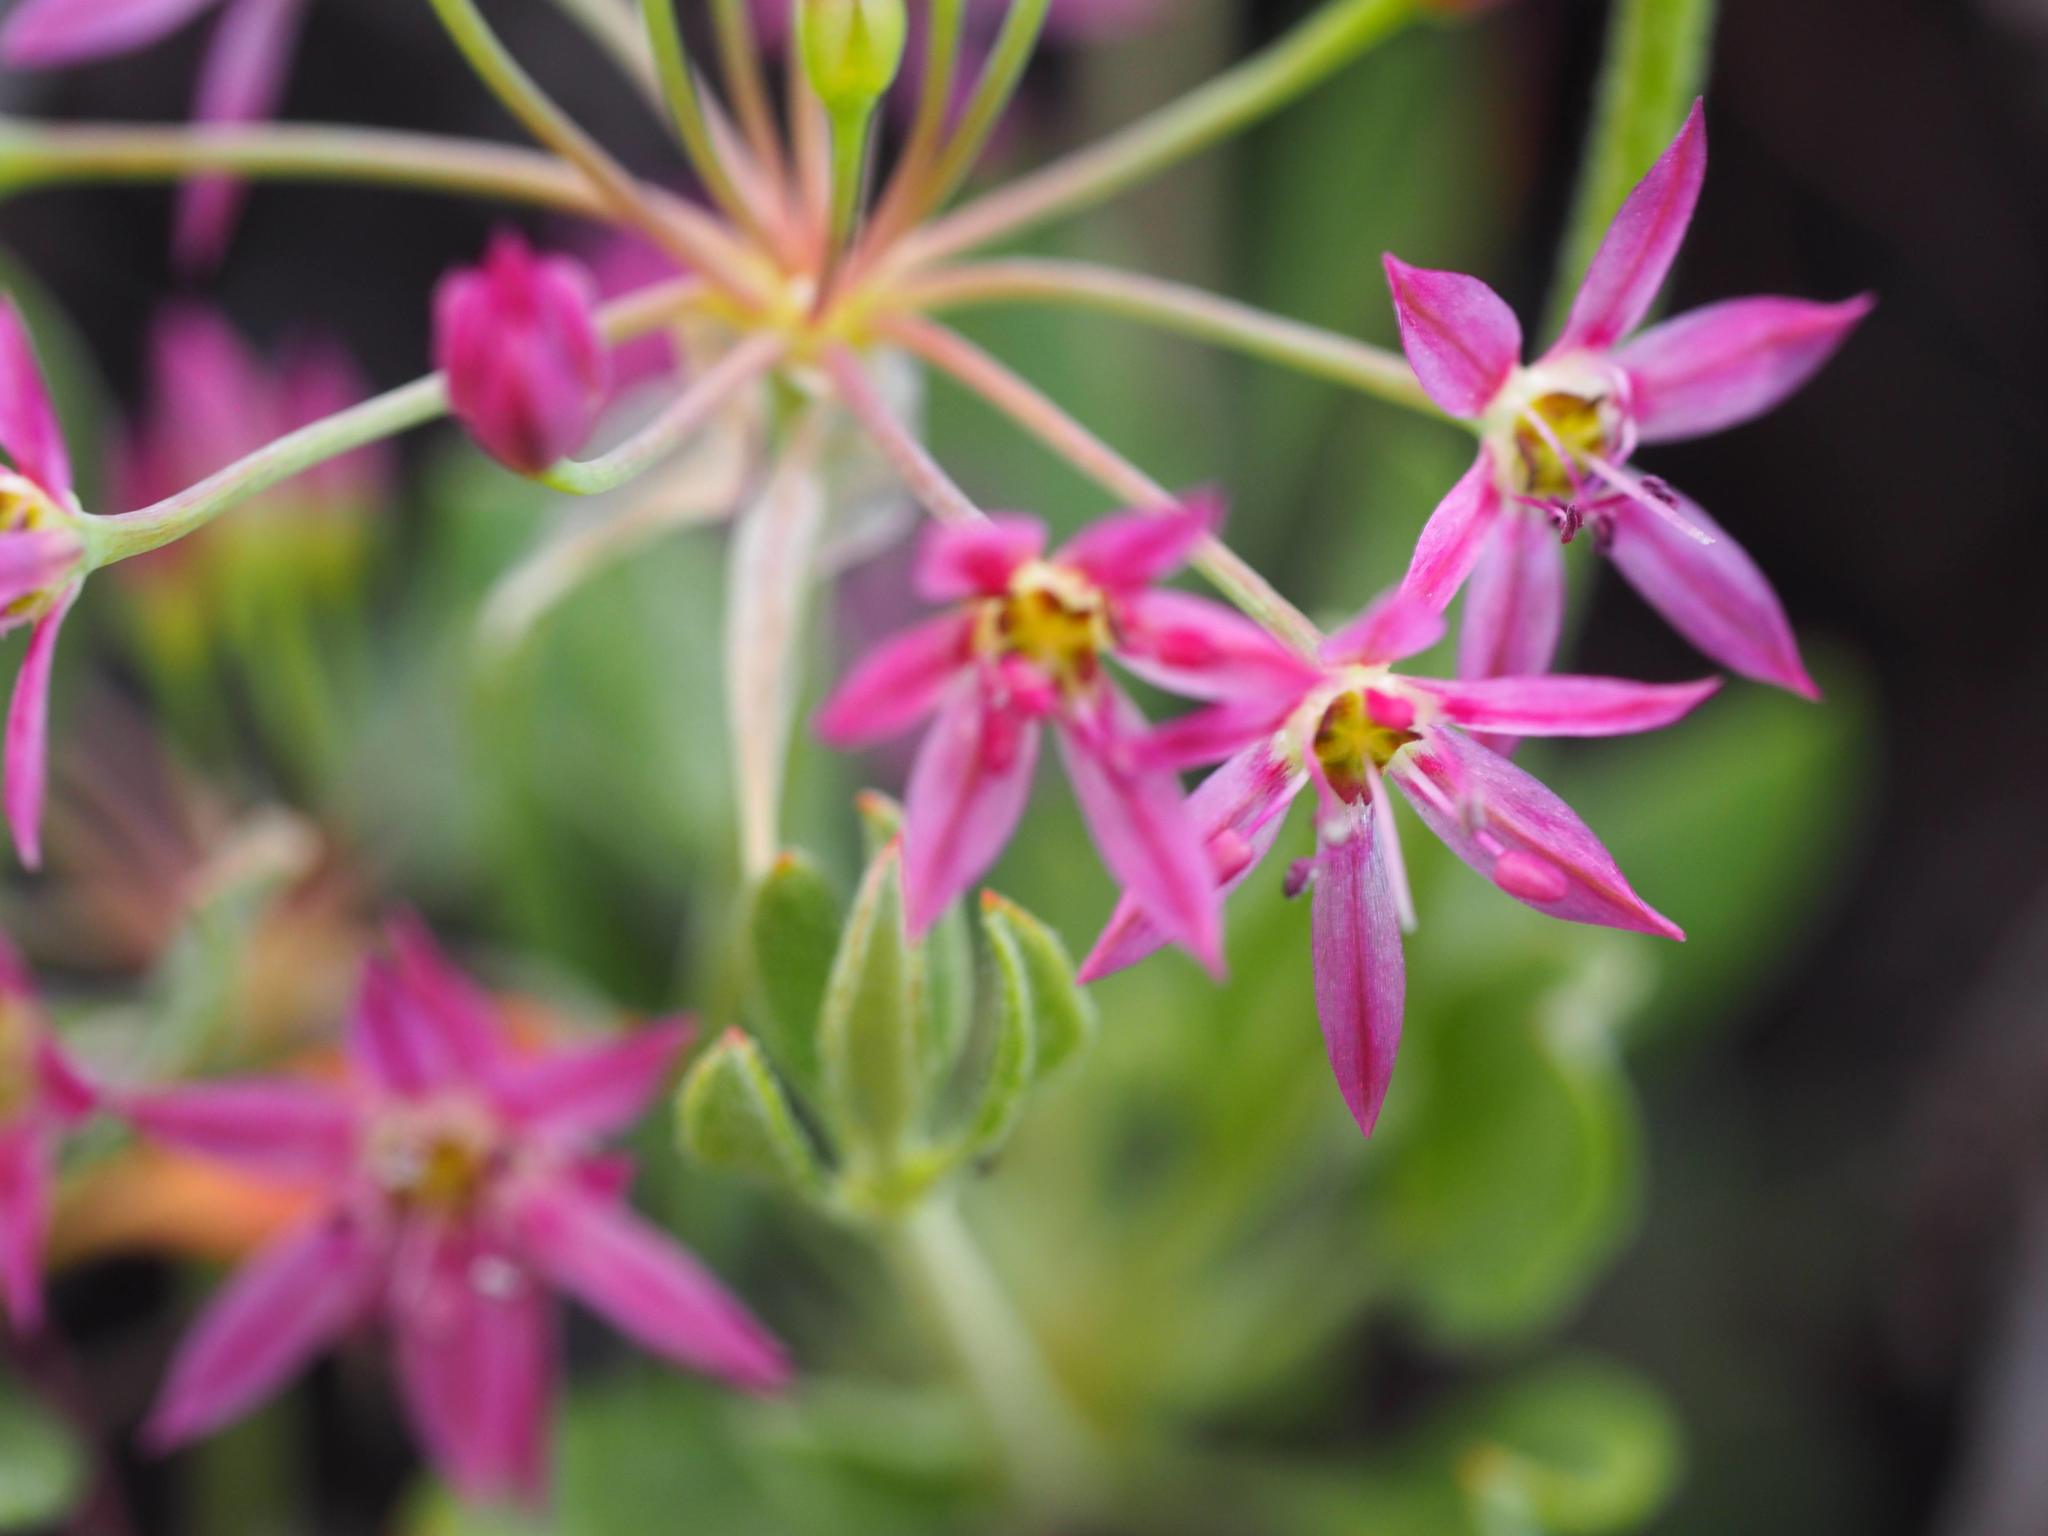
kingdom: Plantae
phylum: Tracheophyta
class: Liliopsida
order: Asparagales
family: Amaryllidaceae
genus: Allium
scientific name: Allium campanulatum
